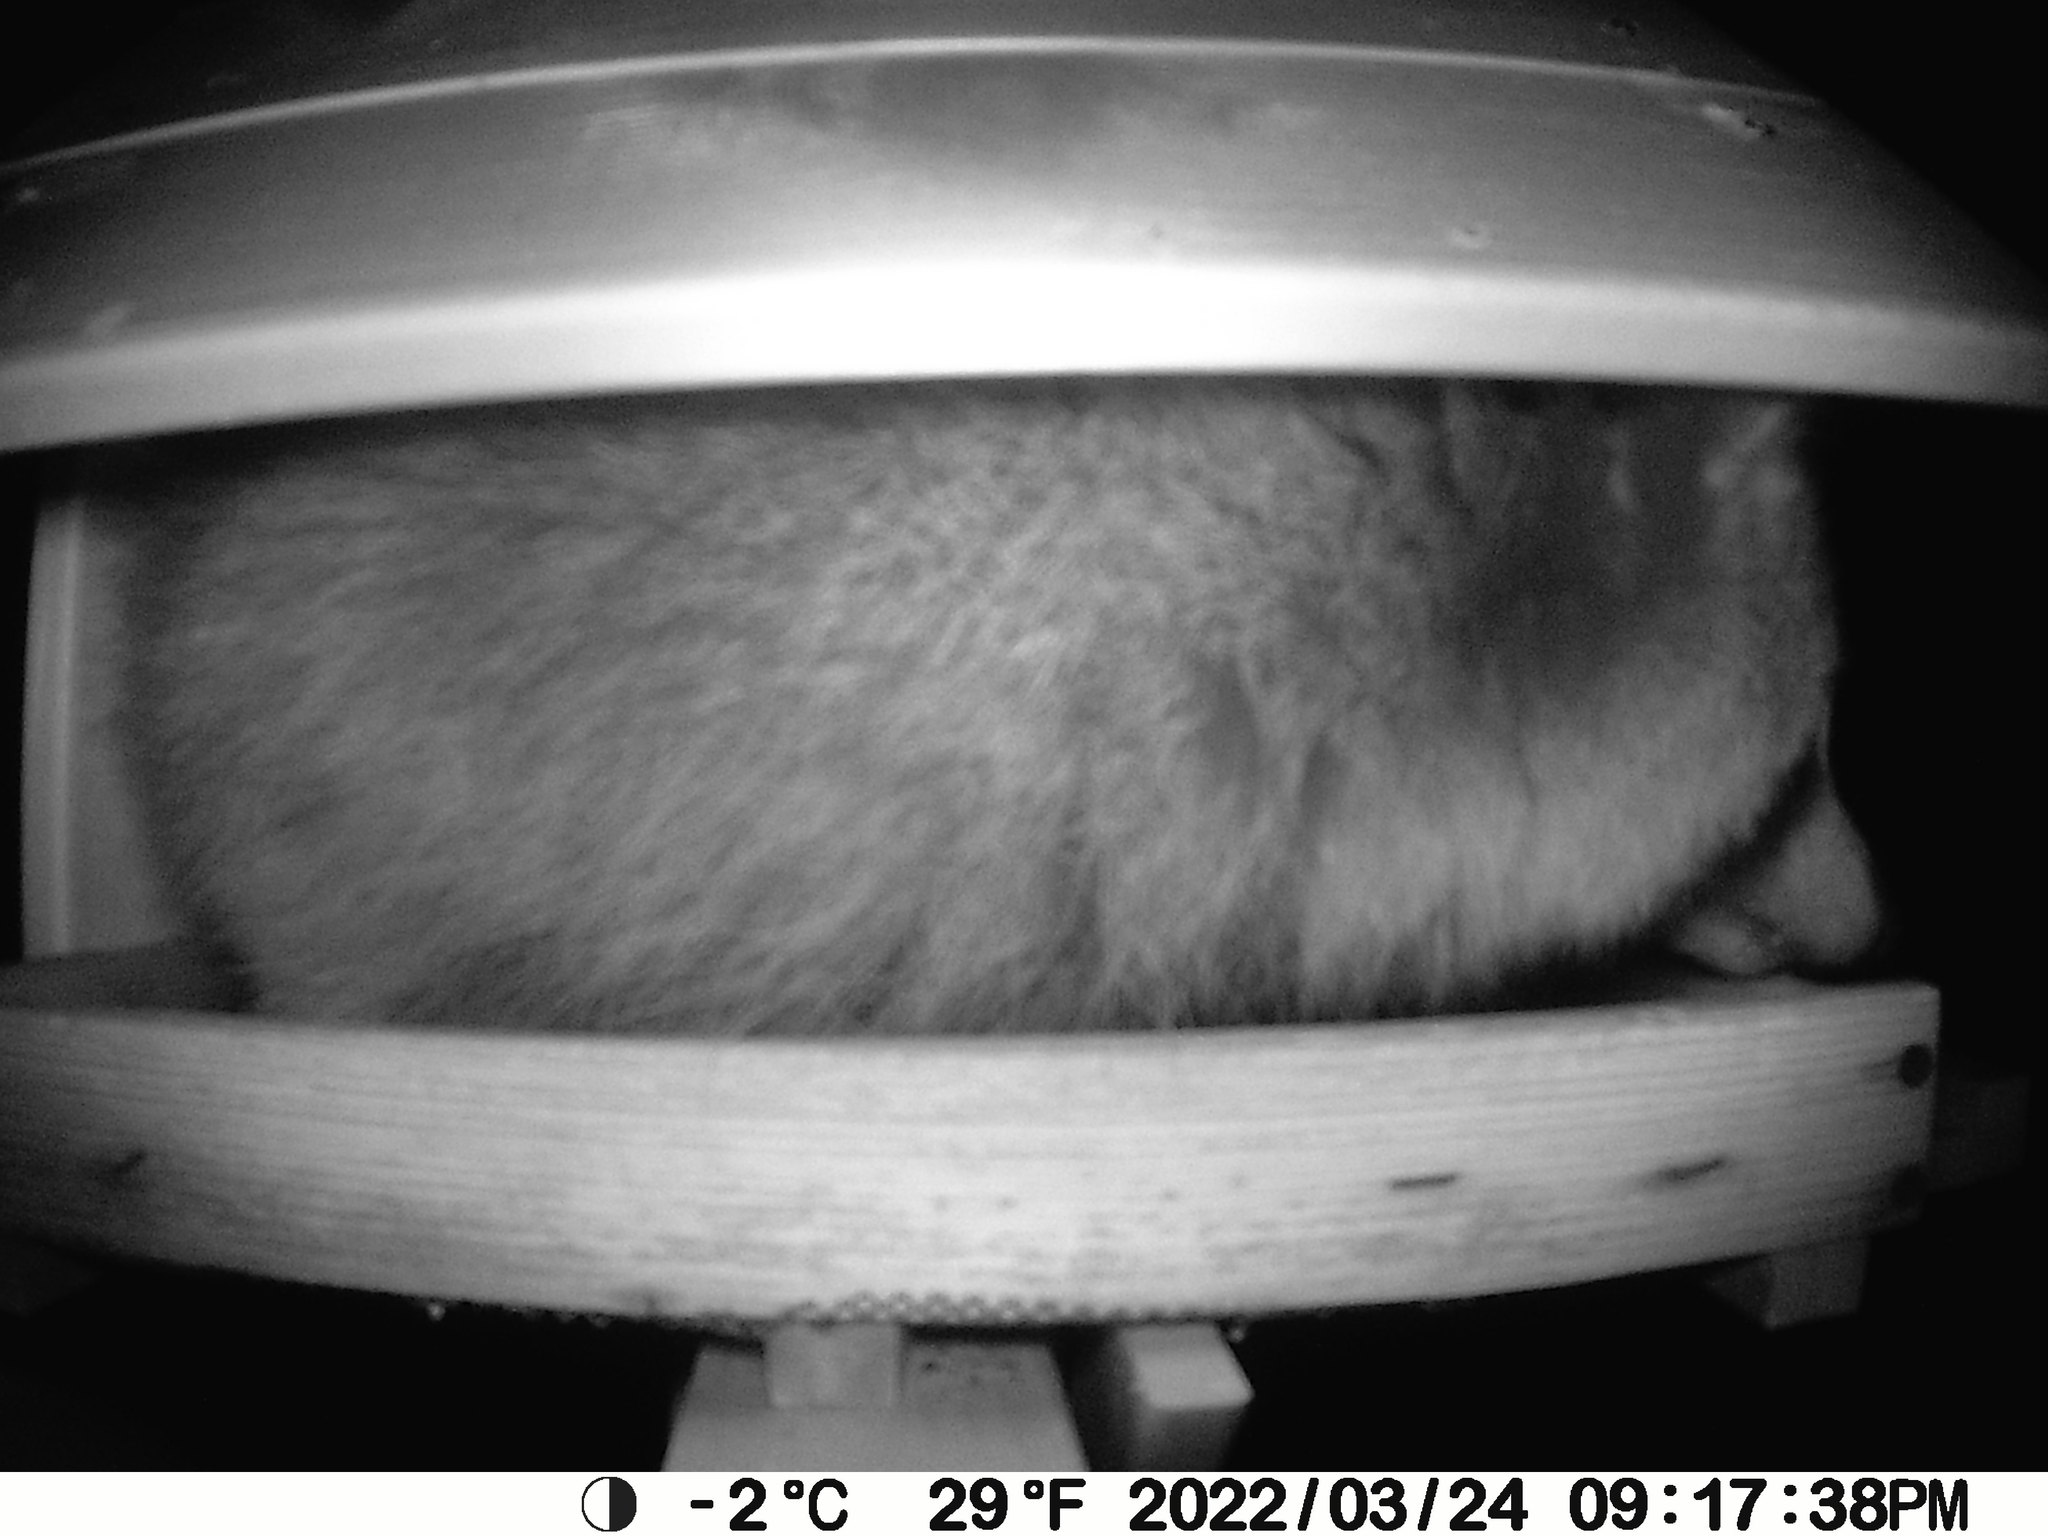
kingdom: Animalia
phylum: Chordata
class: Mammalia
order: Carnivora
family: Procyonidae
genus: Procyon
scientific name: Procyon lotor
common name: Raccoon
